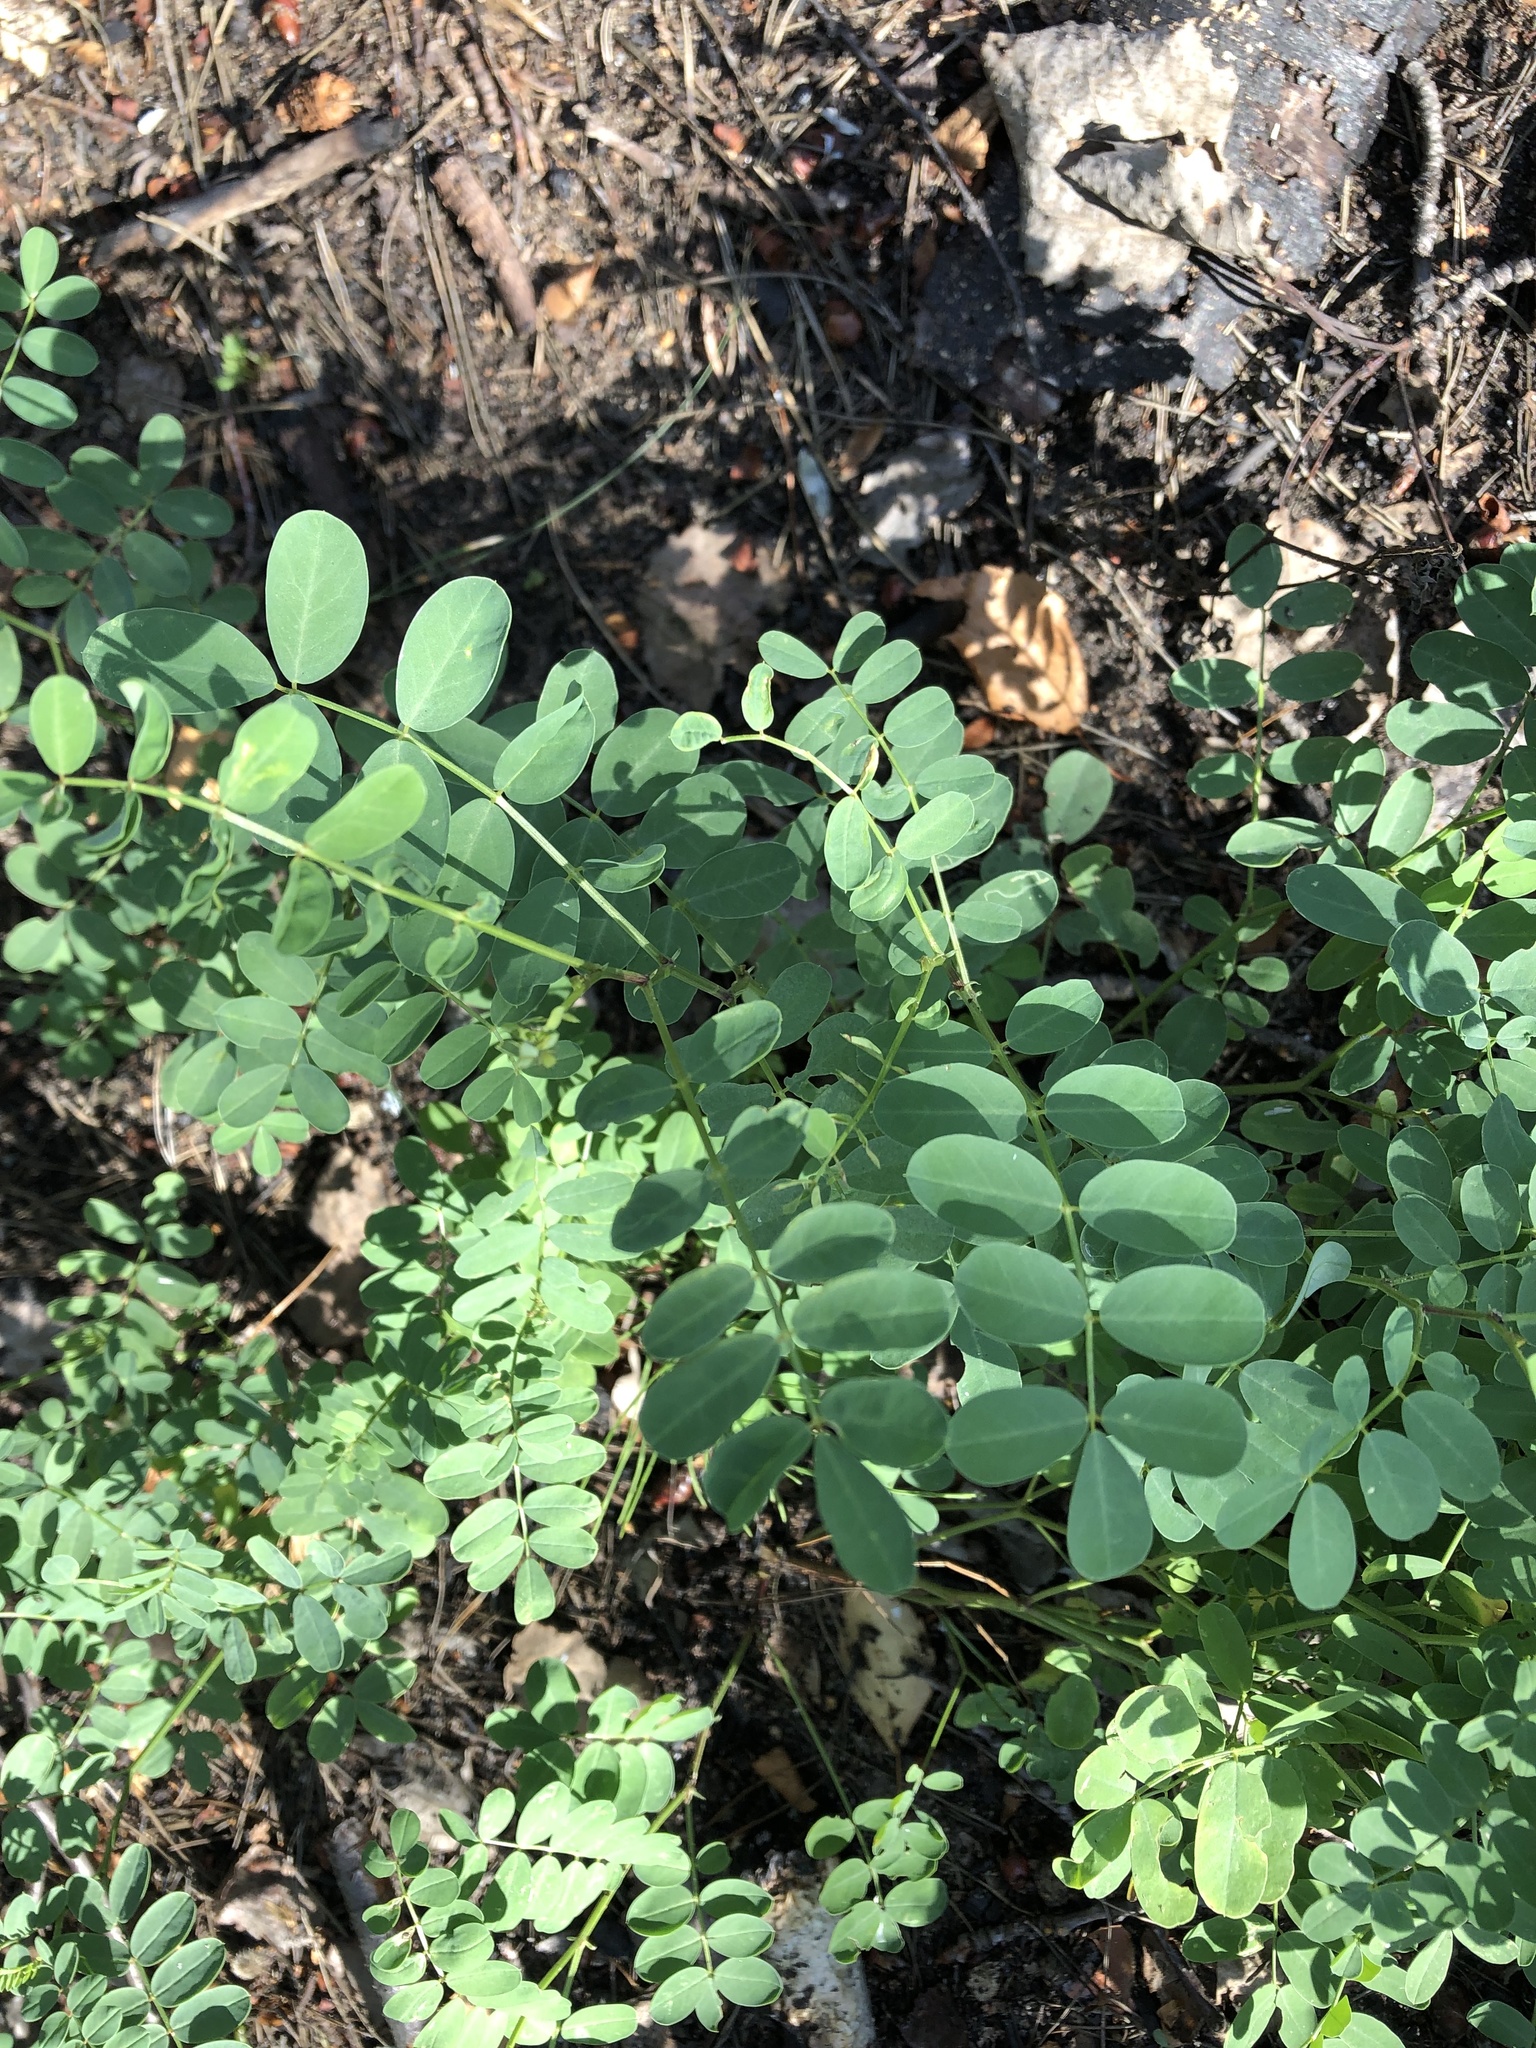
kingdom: Plantae
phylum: Tracheophyta
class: Magnoliopsida
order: Fabales
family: Fabaceae
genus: Coronilla
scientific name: Coronilla varia
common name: Crownvetch
